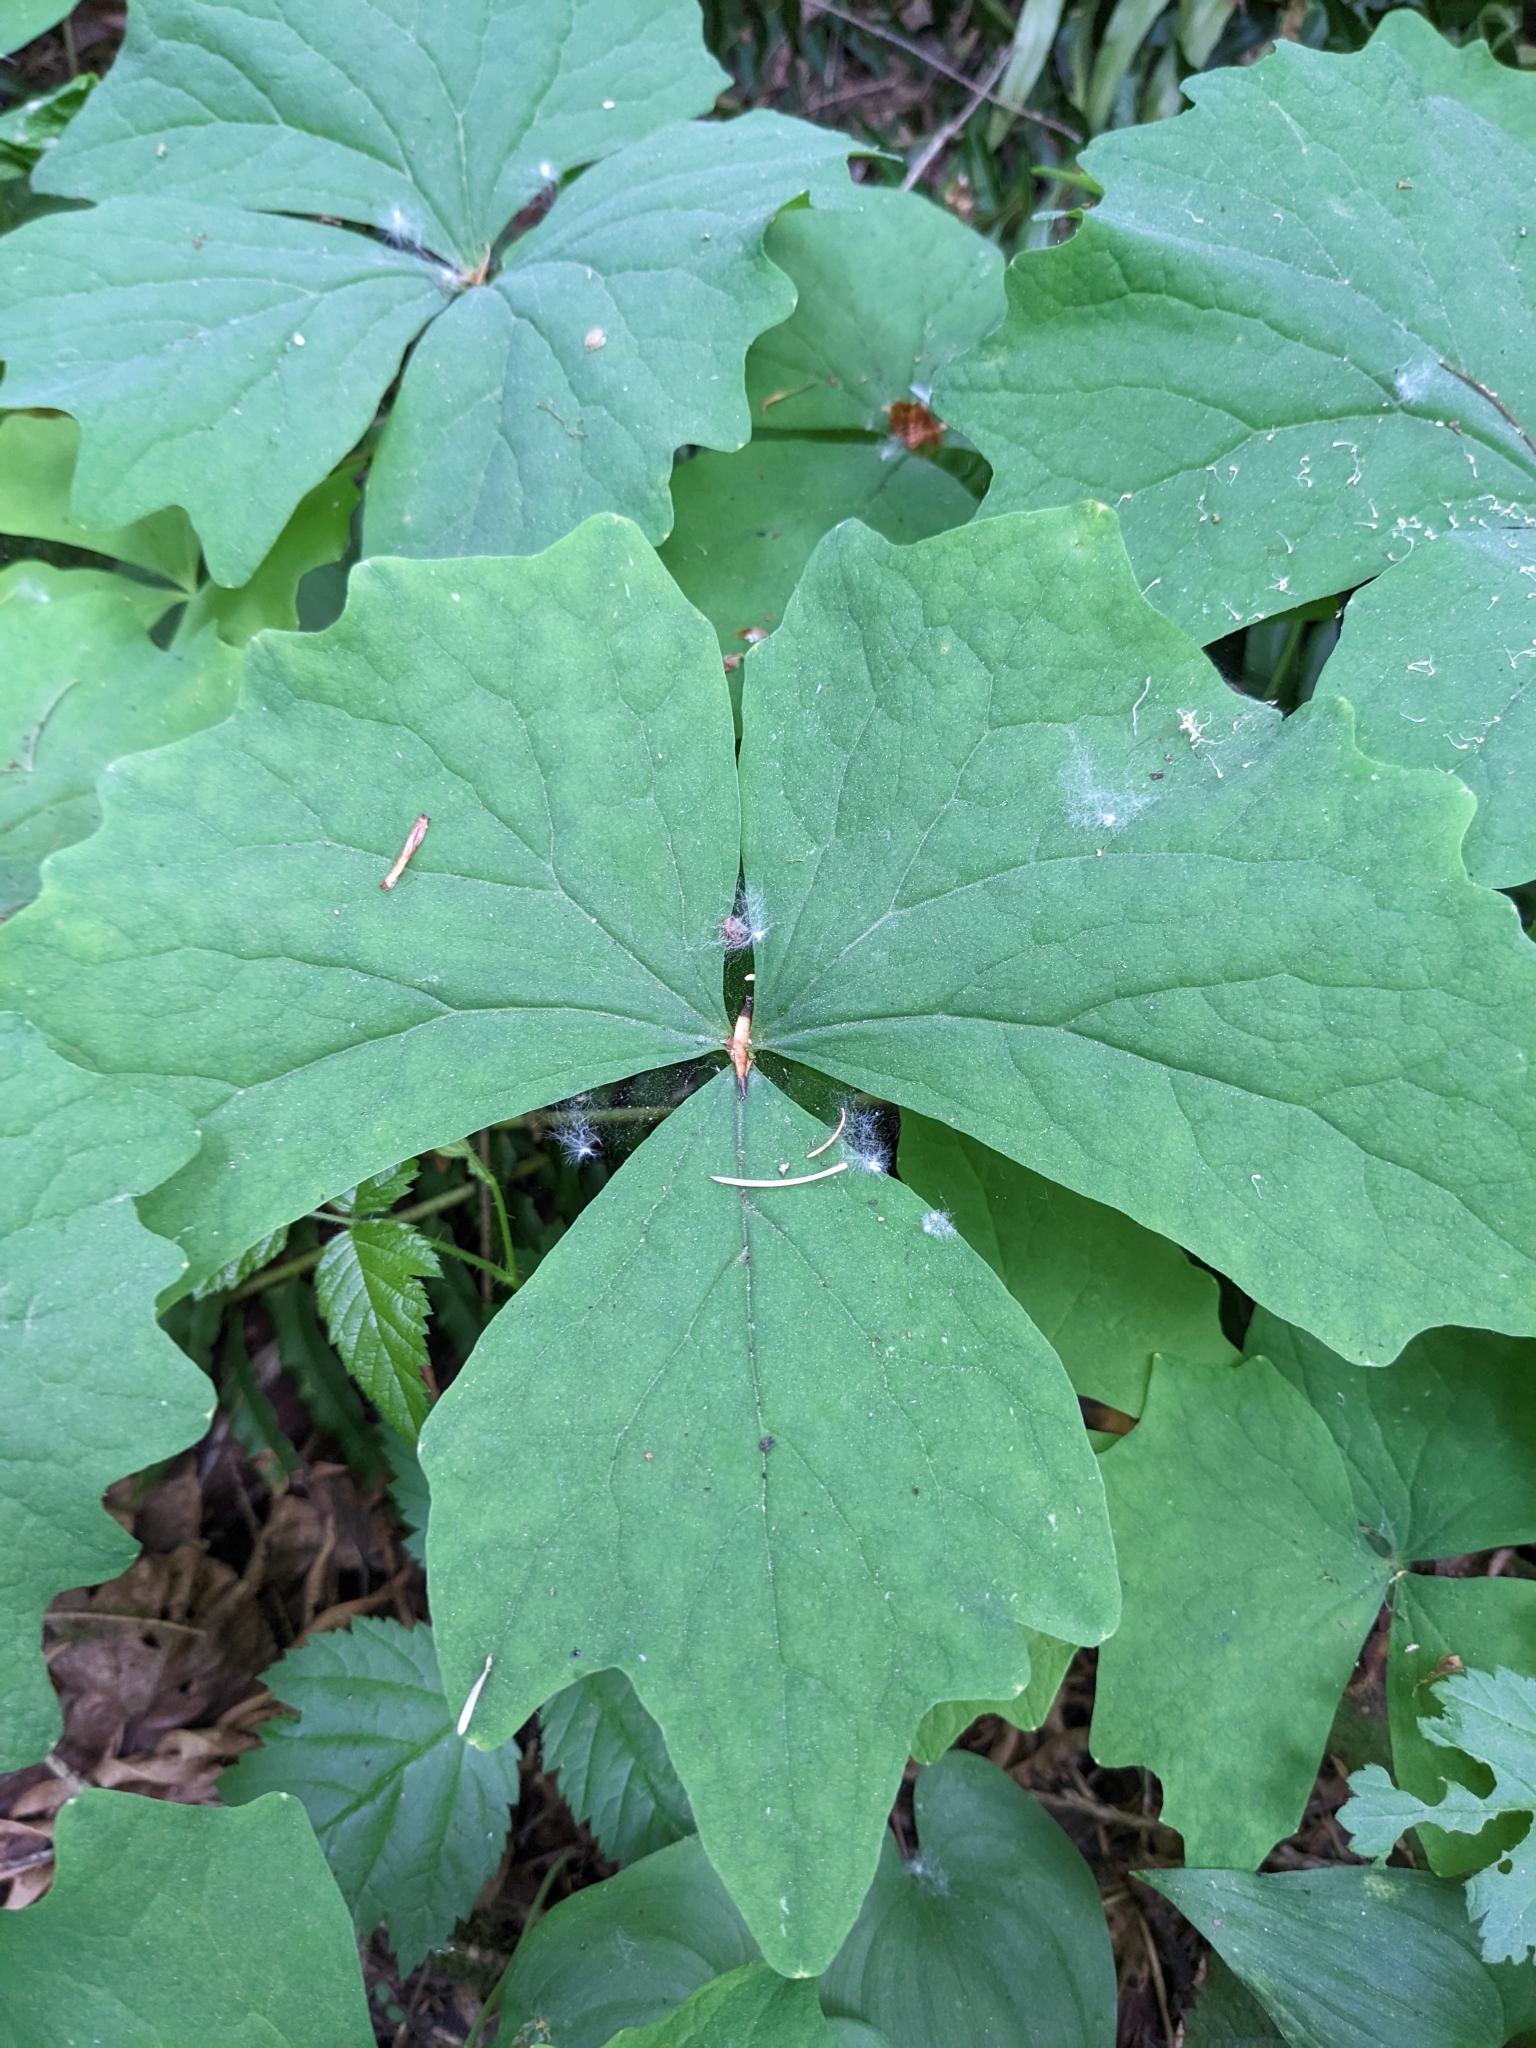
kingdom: Plantae
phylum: Tracheophyta
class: Magnoliopsida
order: Ranunculales
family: Berberidaceae
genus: Achlys
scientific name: Achlys triphylla
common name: Vanilla-leaf
